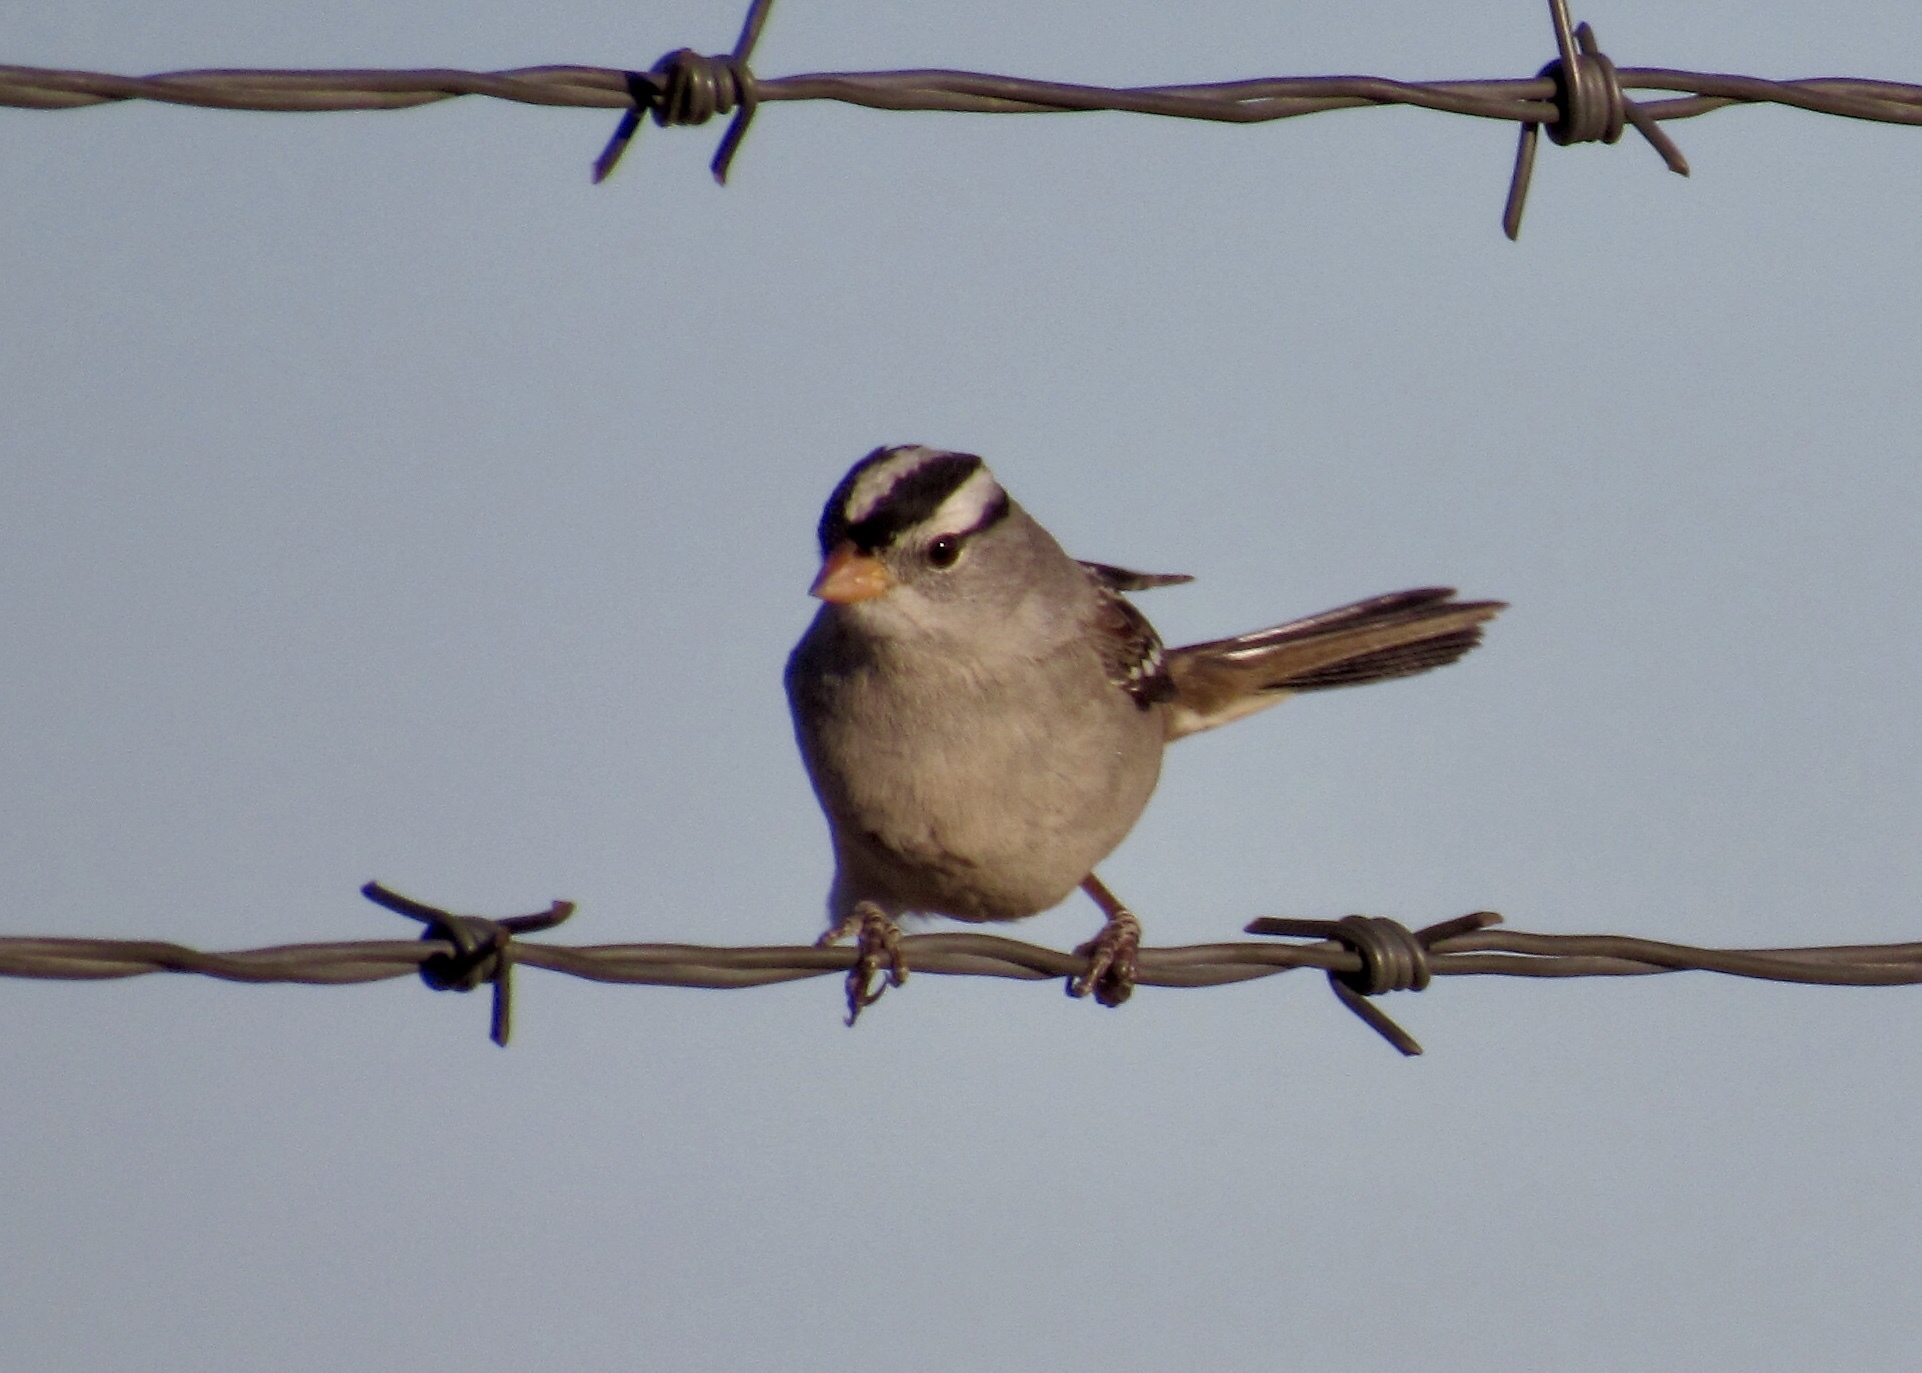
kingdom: Animalia
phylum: Chordata
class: Aves
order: Passeriformes
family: Passerellidae
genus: Zonotrichia
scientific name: Zonotrichia leucophrys
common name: White-crowned sparrow
